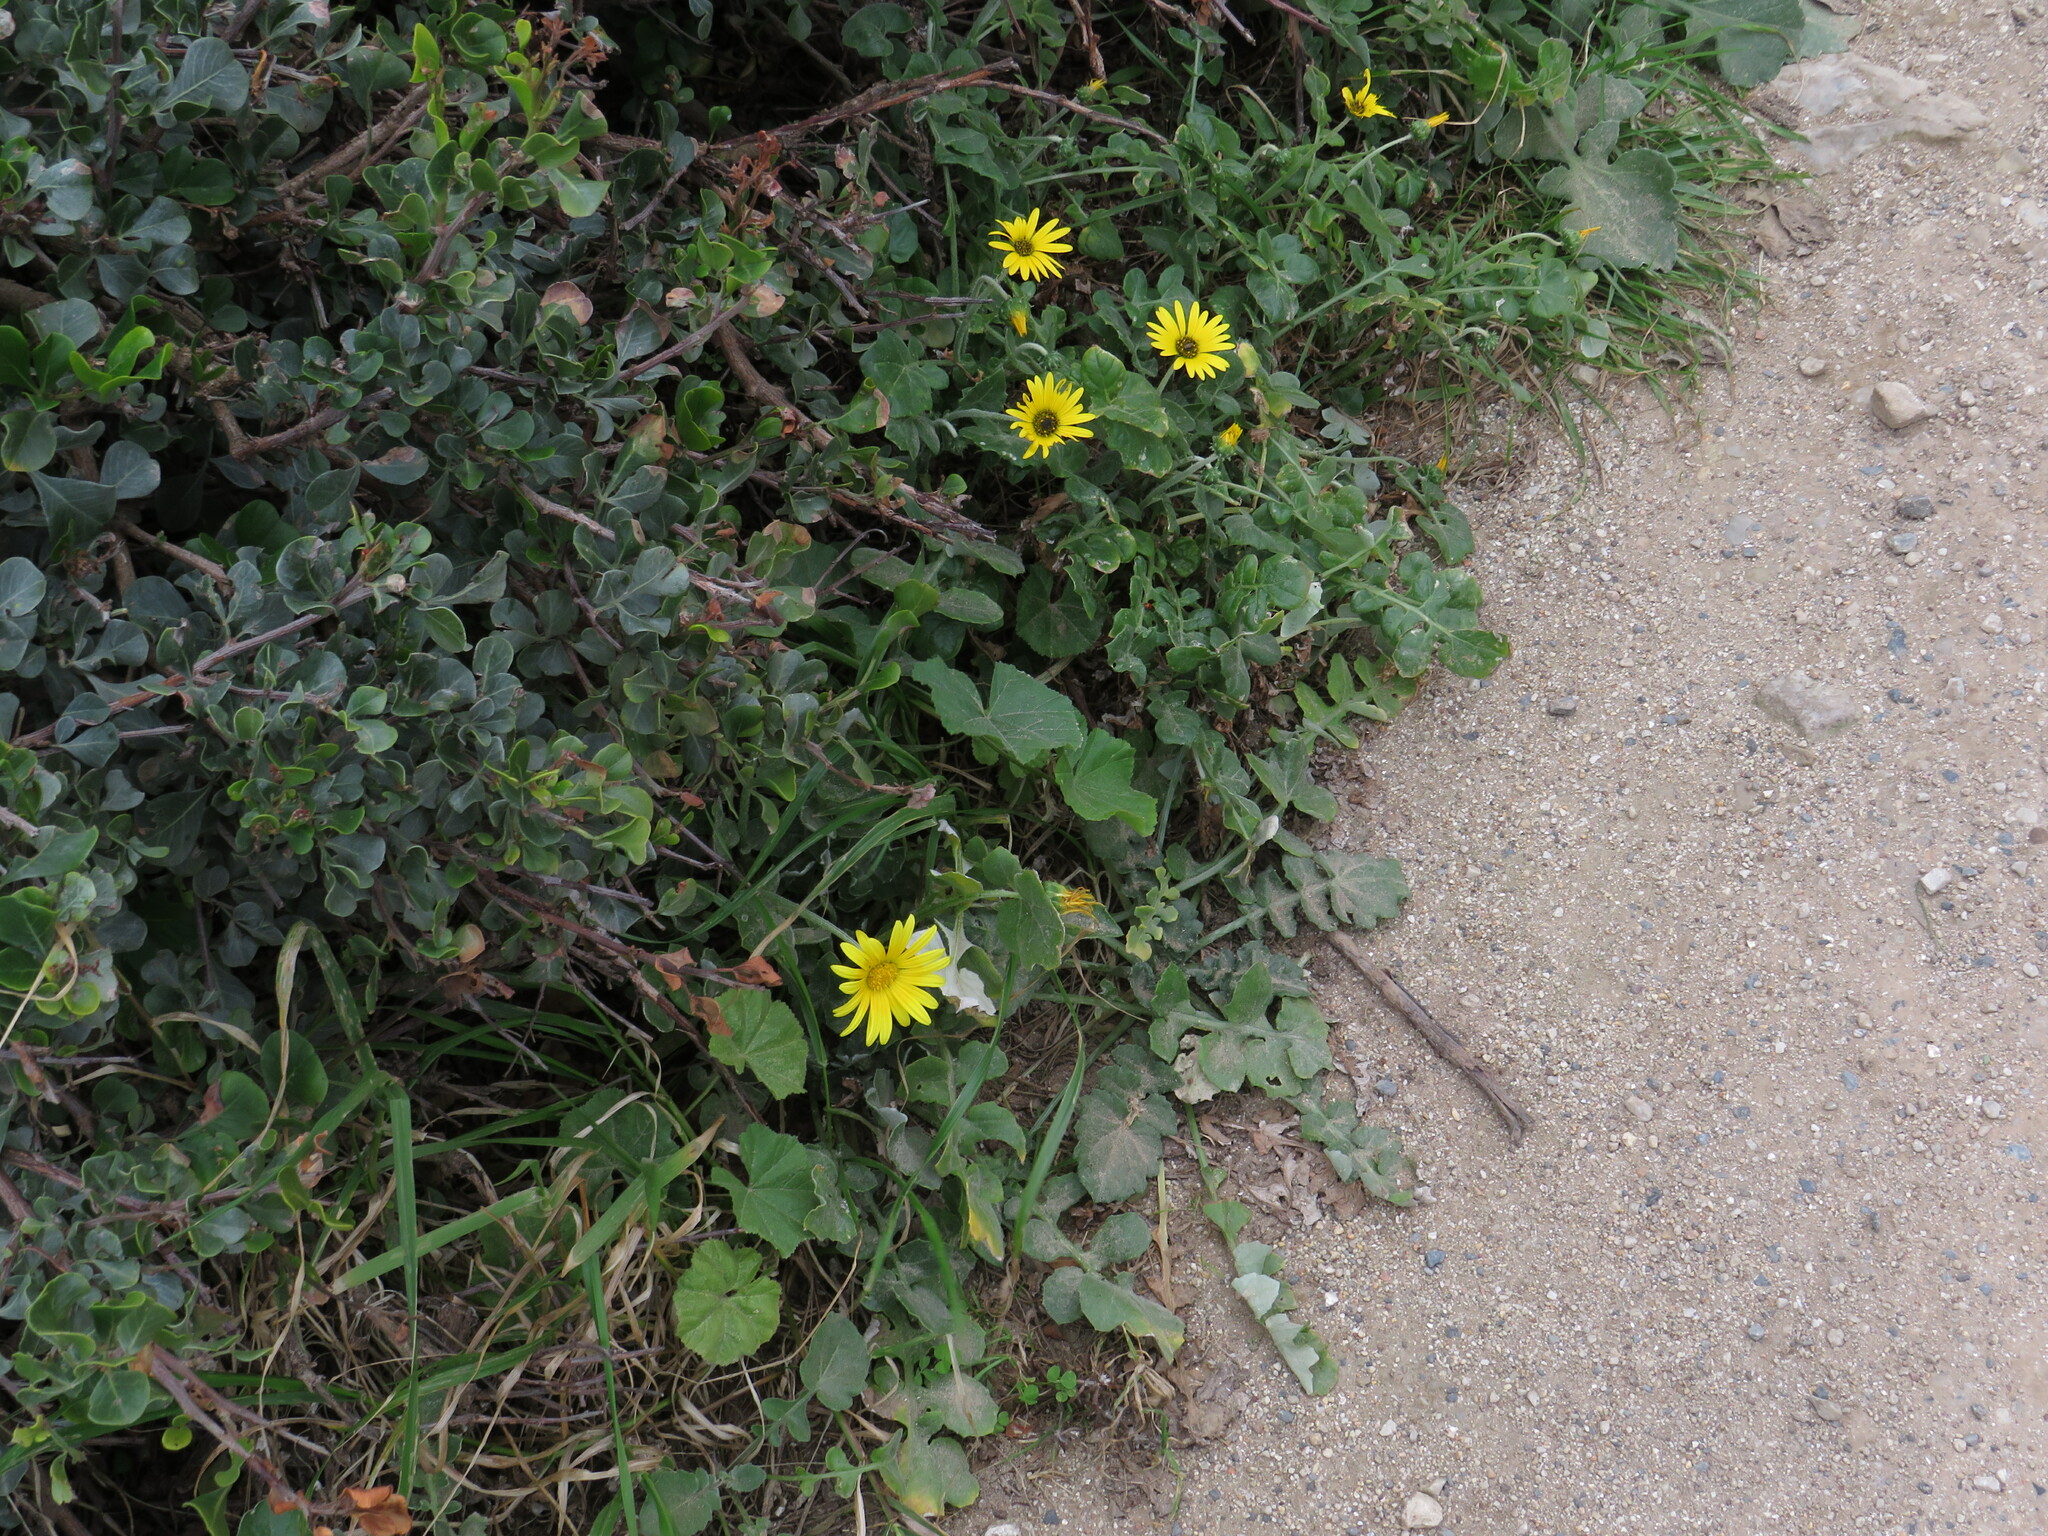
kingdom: Plantae
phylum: Tracheophyta
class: Magnoliopsida
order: Sapindales
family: Anacardiaceae
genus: Searsia
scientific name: Searsia glauca
